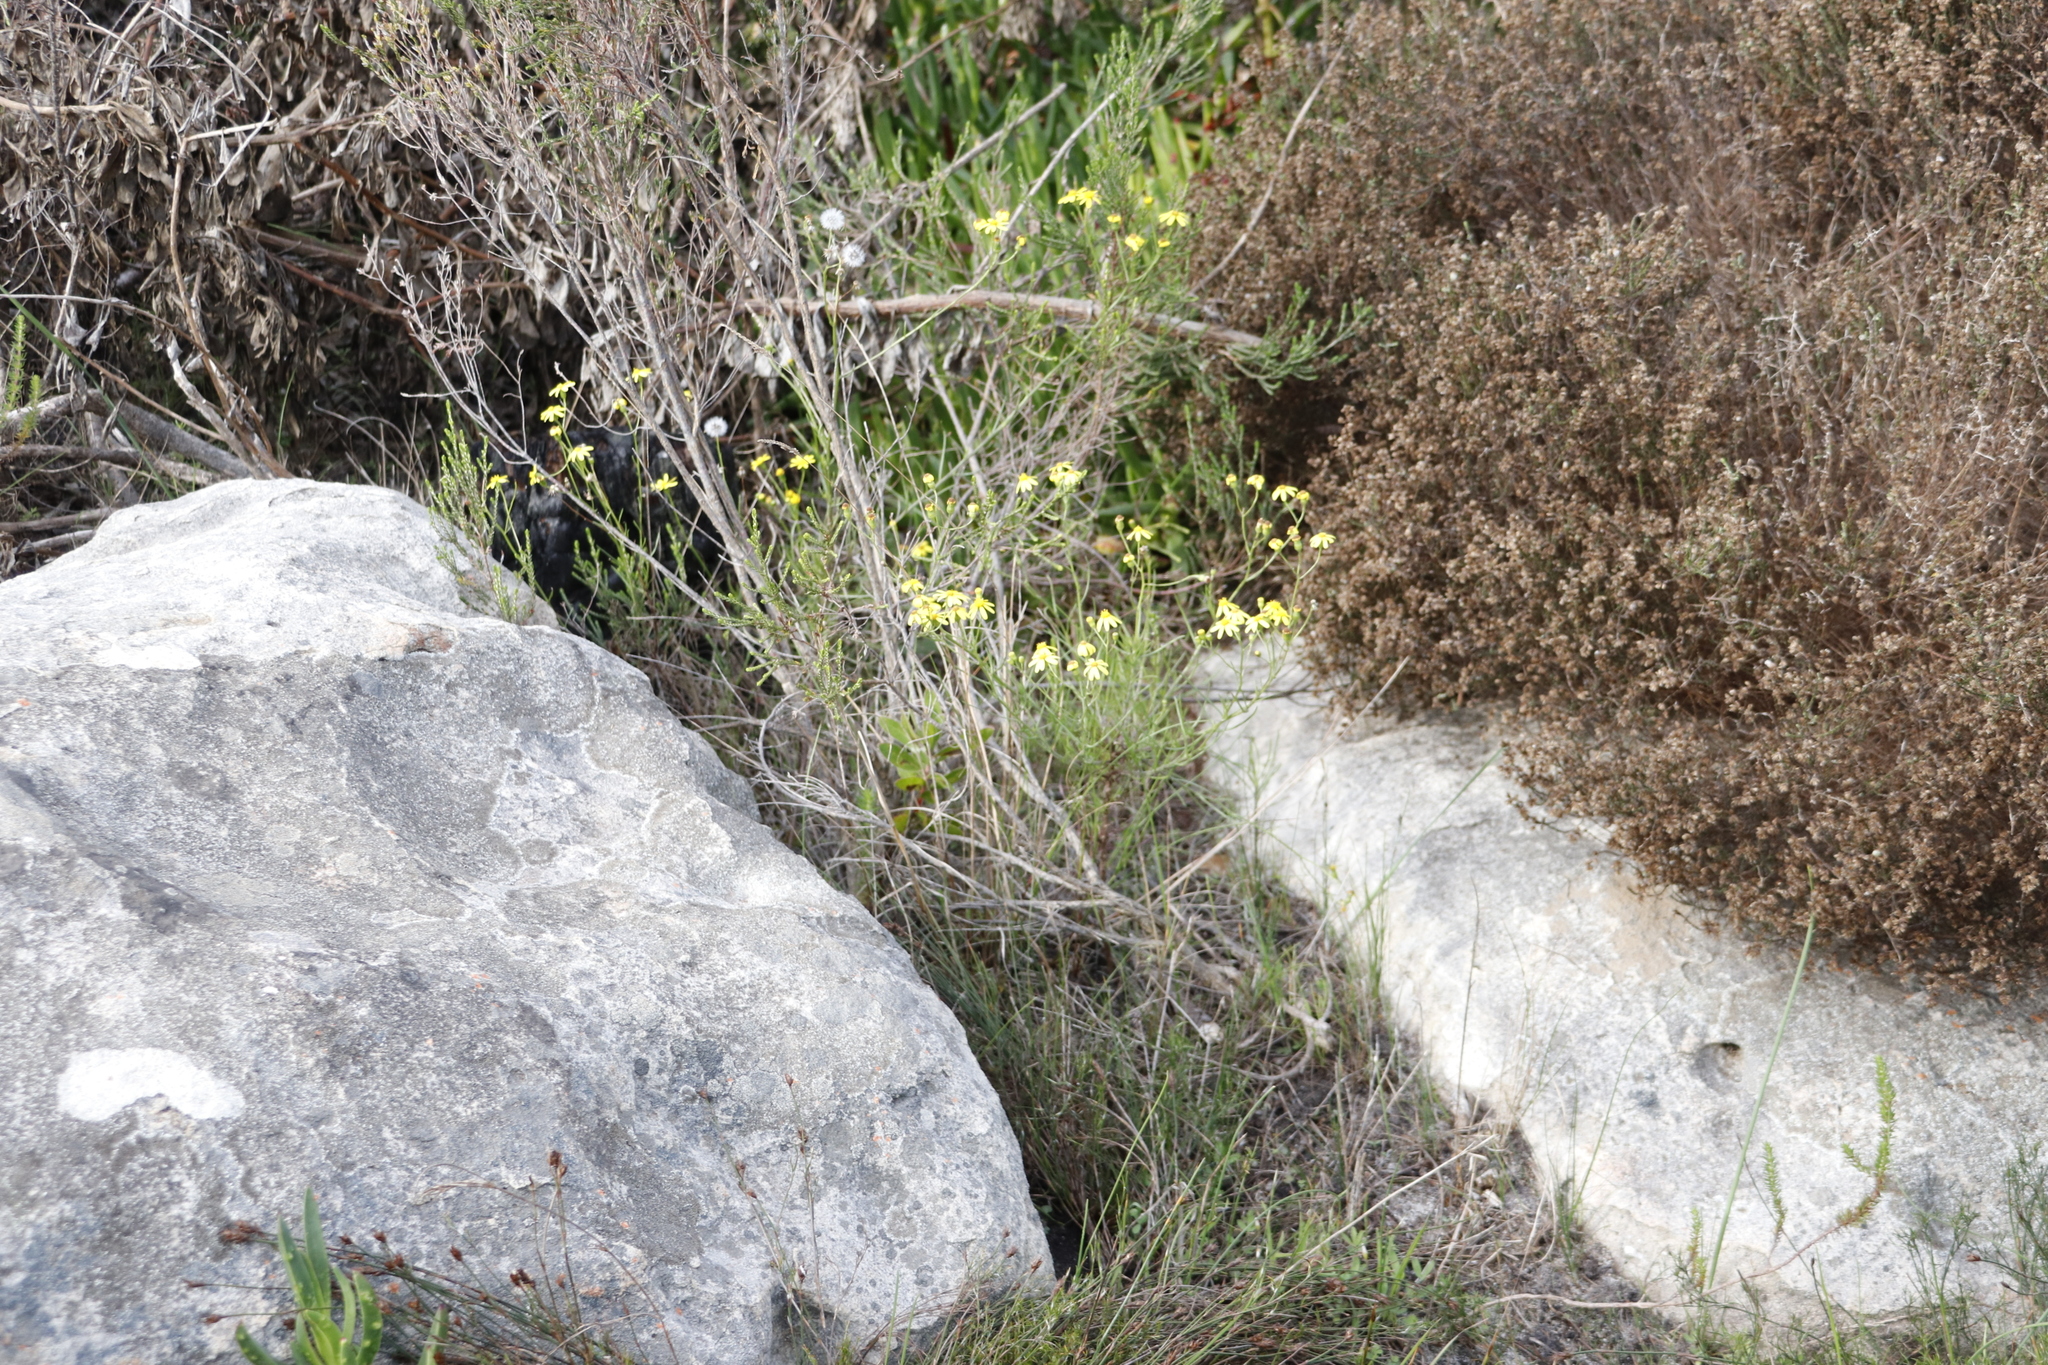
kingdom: Plantae
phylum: Tracheophyta
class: Magnoliopsida
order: Asterales
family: Asteraceae
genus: Senecio
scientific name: Senecio burchellii
